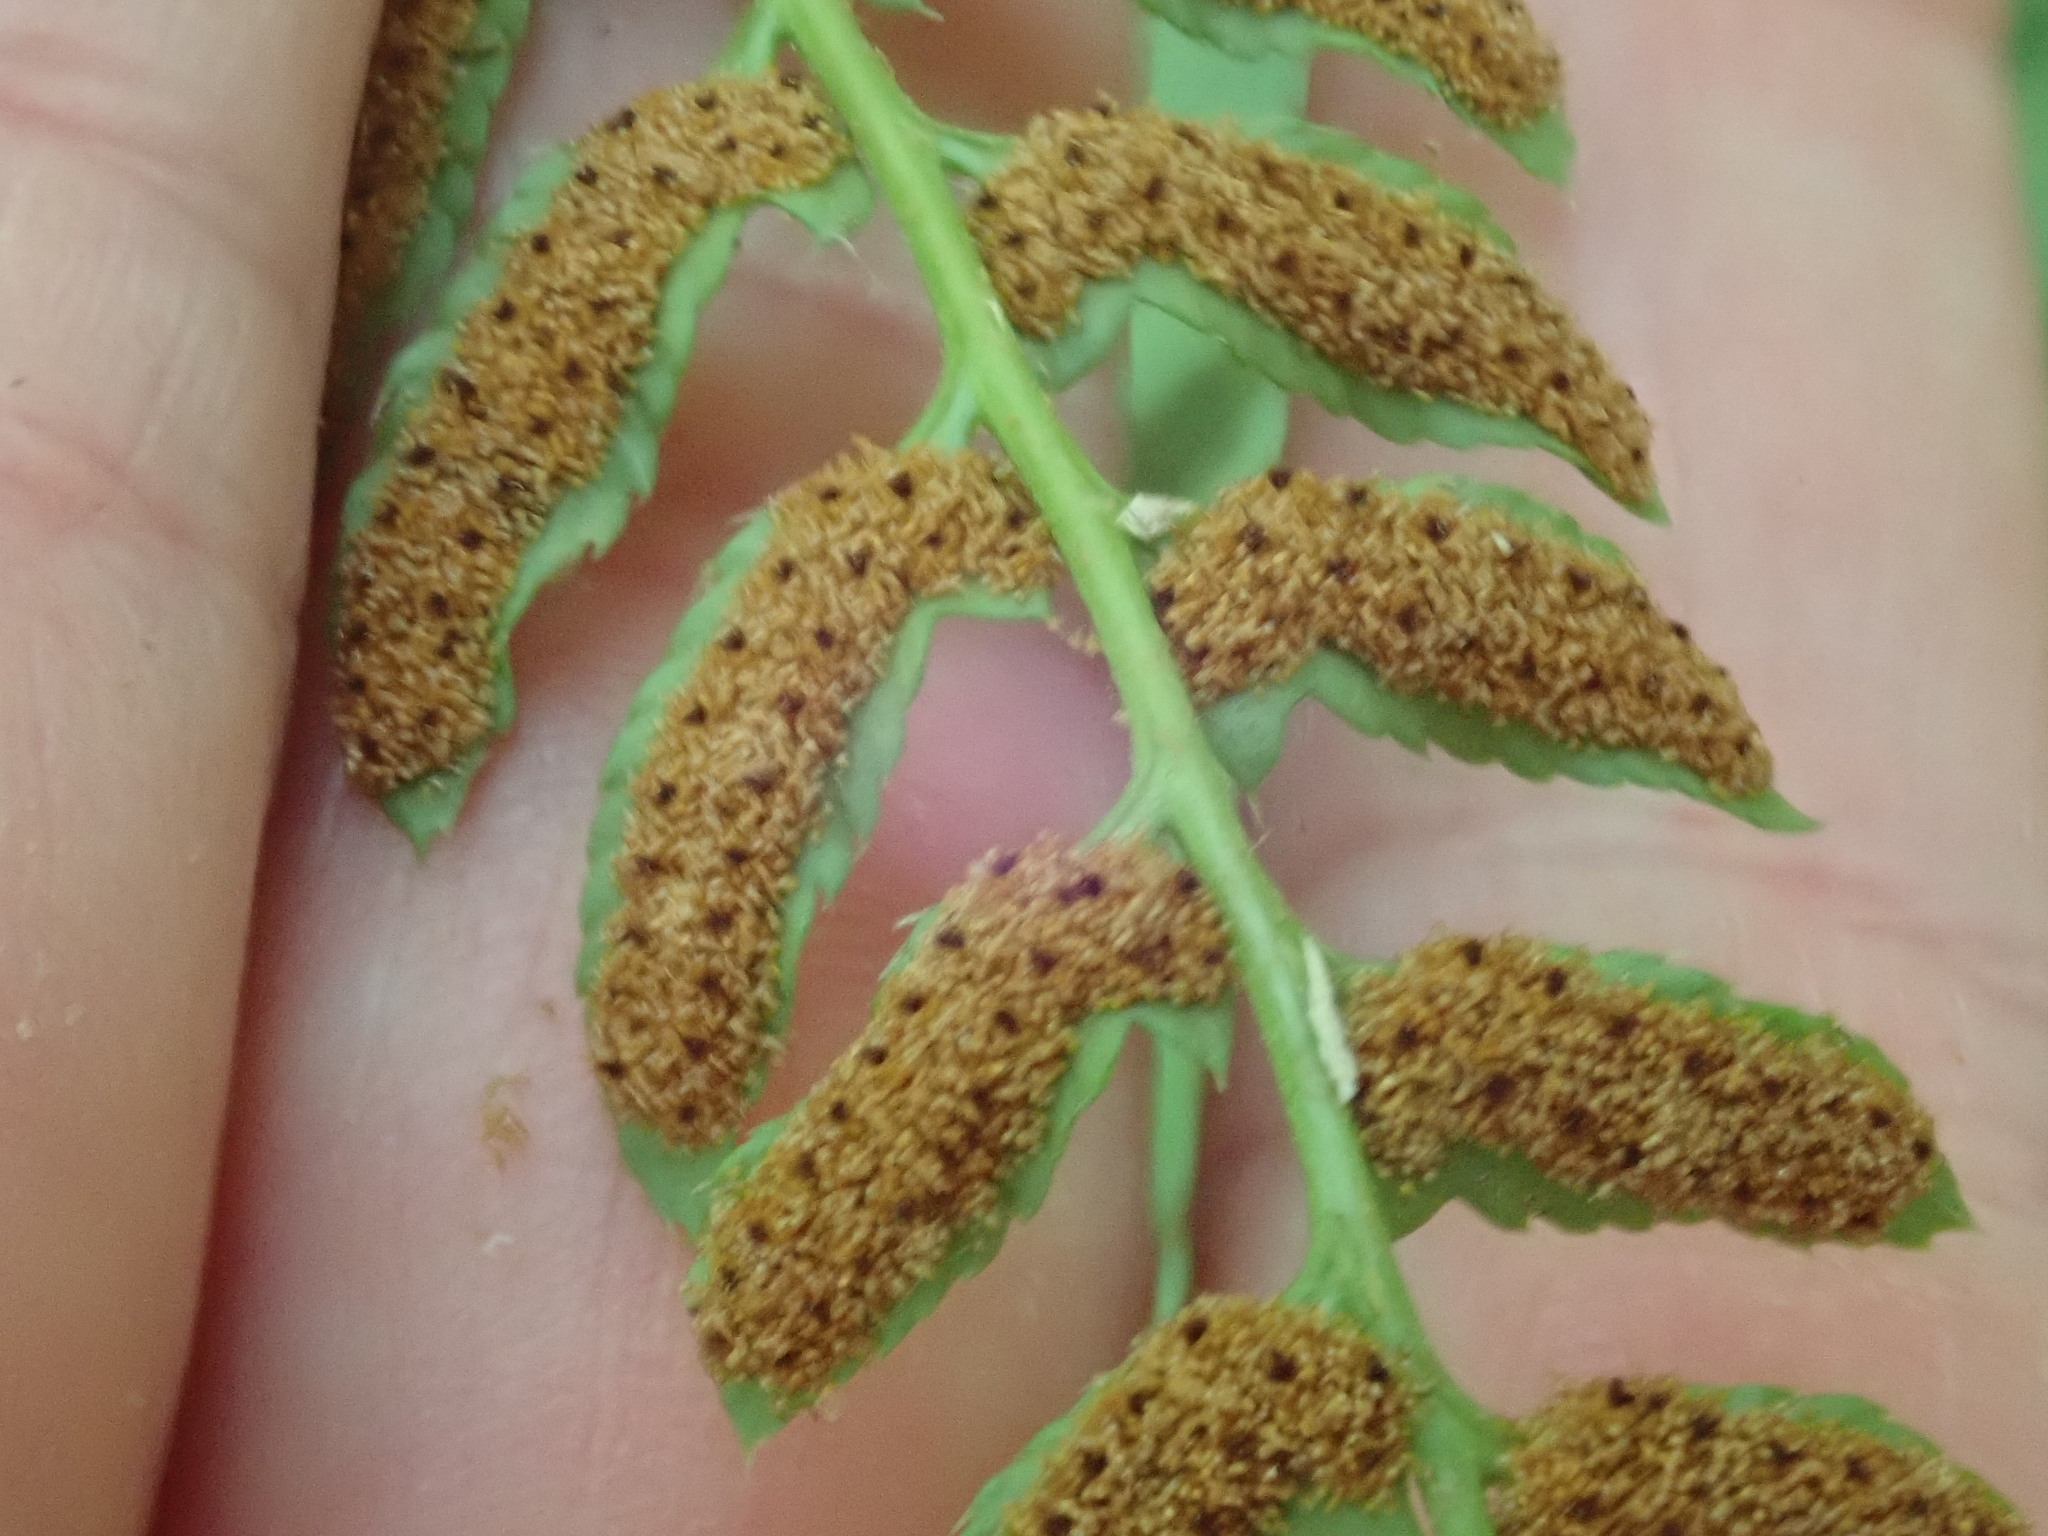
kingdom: Plantae
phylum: Tracheophyta
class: Polypodiopsida
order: Polypodiales
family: Dryopteridaceae
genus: Polystichum
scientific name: Polystichum acrostichoides
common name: Christmas fern
